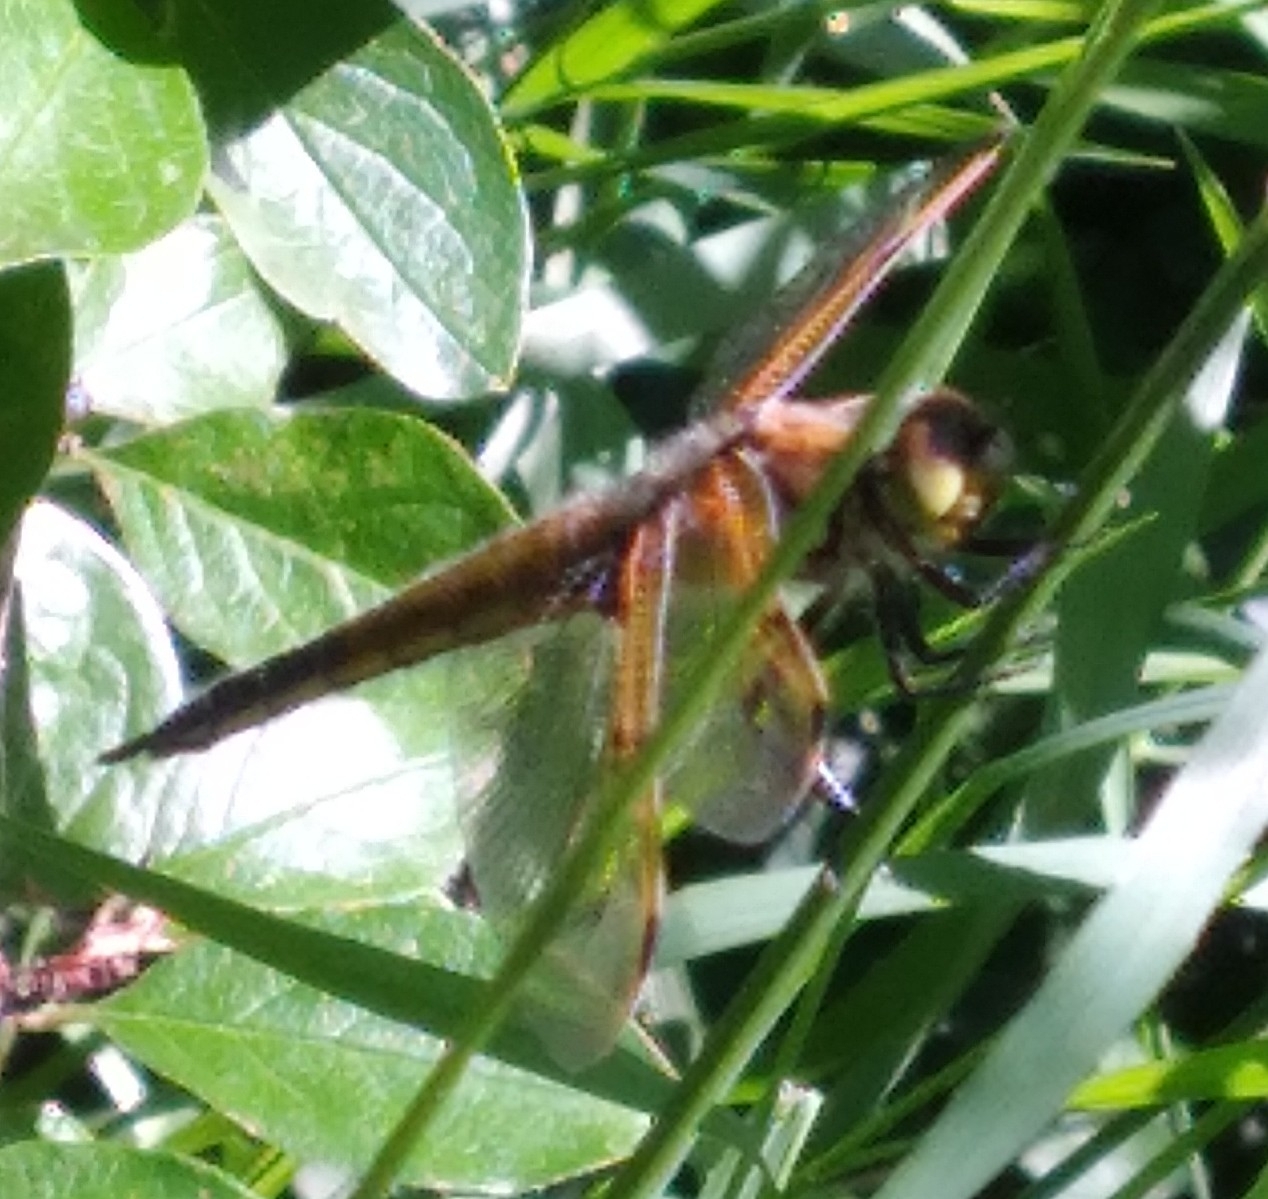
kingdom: Animalia
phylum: Arthropoda
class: Insecta
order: Odonata
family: Libellulidae
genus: Libellula
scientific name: Libellula quadrimaculata
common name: Four-spotted chaser
